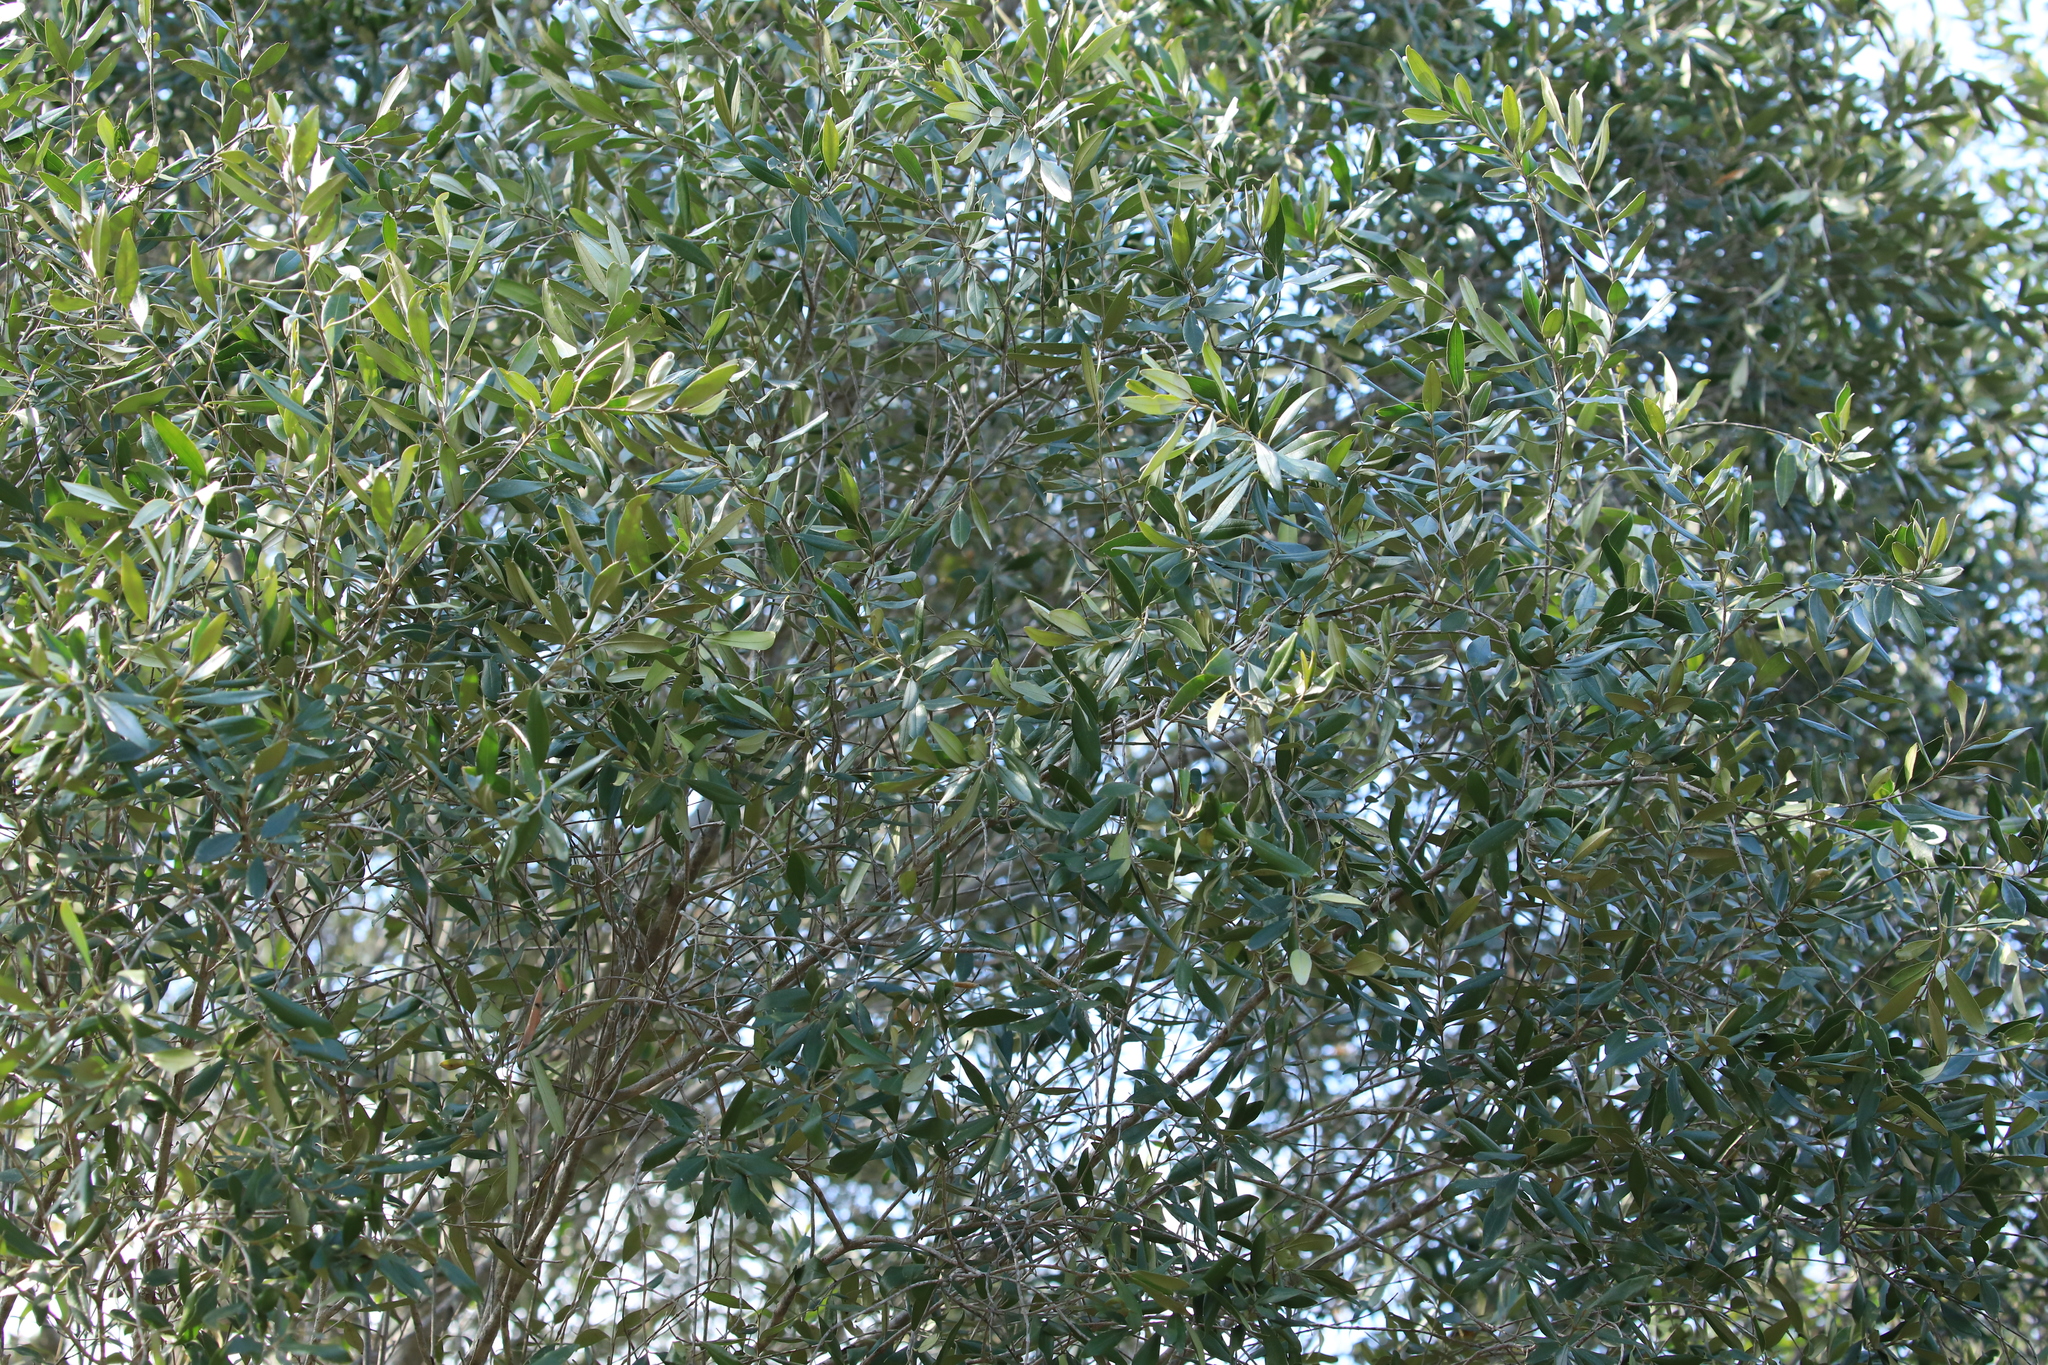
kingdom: Plantae
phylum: Tracheophyta
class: Magnoliopsida
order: Lamiales
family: Oleaceae
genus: Olea
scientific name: Olea europaea
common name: Olive
